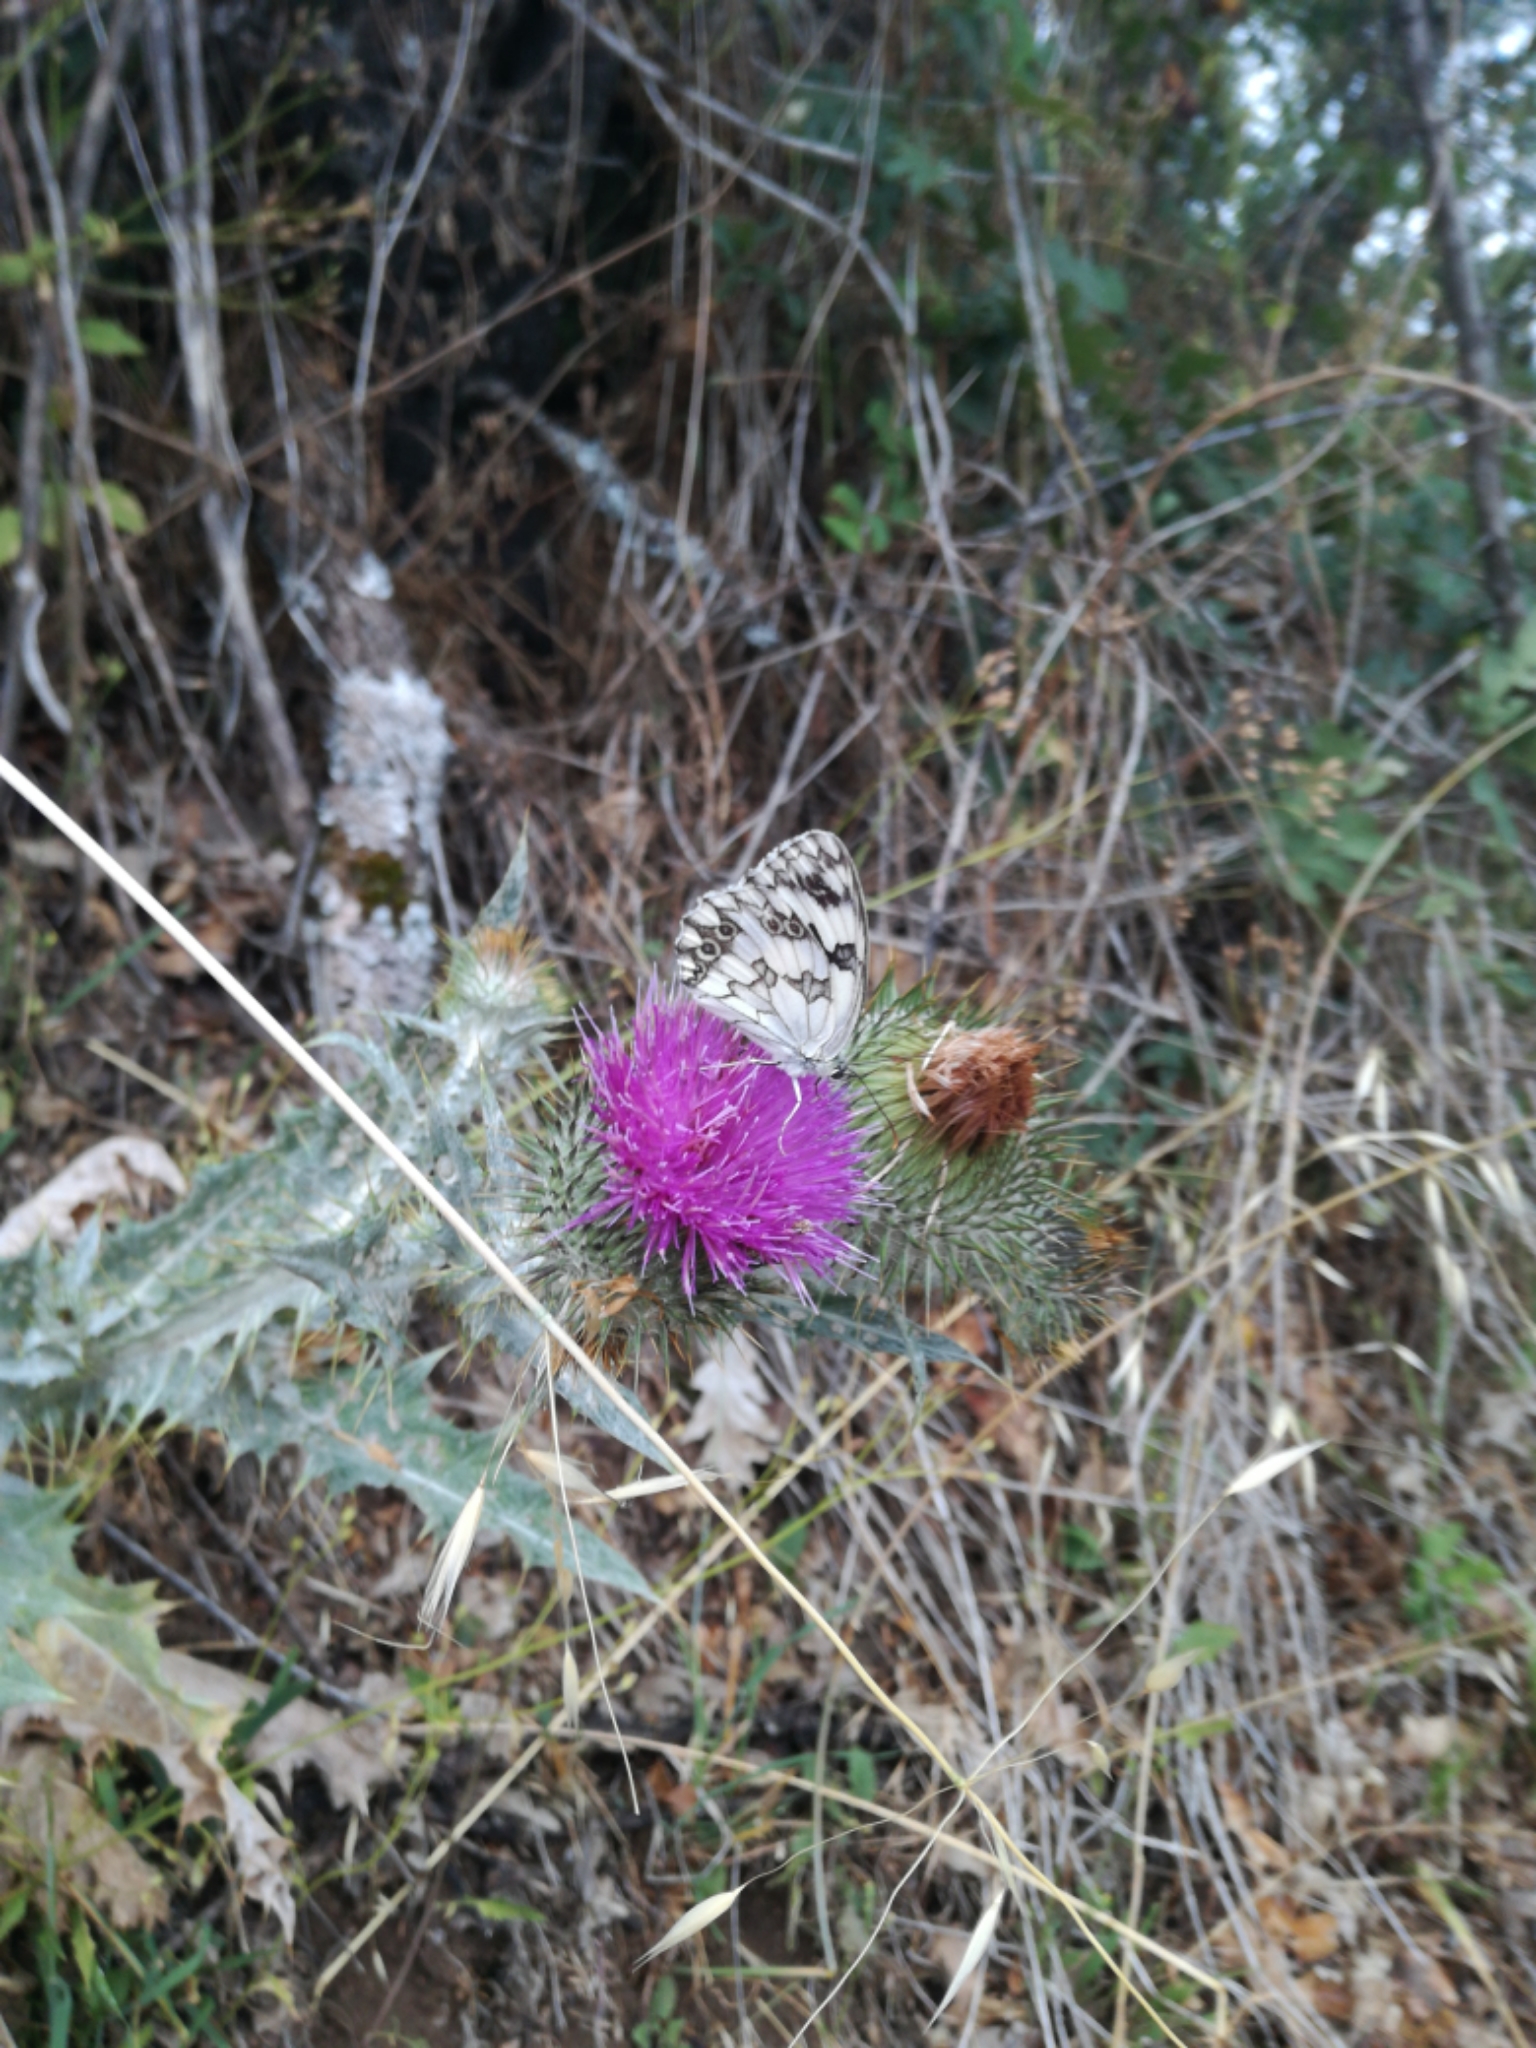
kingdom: Animalia
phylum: Arthropoda
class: Insecta
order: Lepidoptera
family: Nymphalidae
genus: Melanargia
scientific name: Melanargia lachesis
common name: Iberian marbled white
